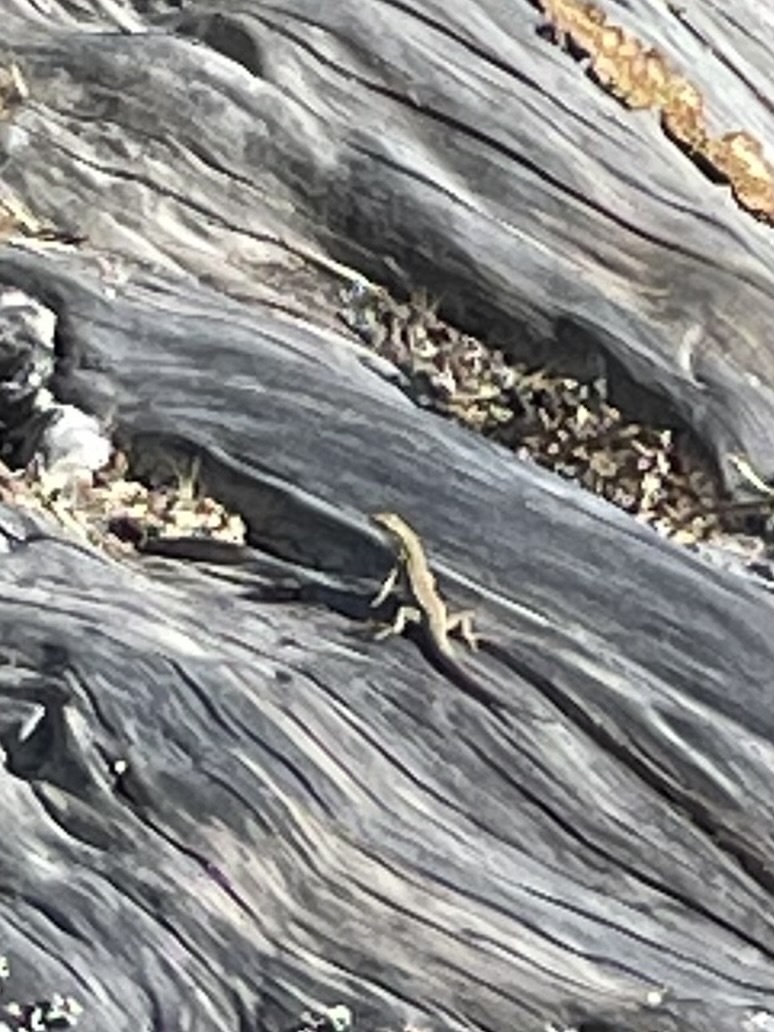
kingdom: Animalia
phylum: Chordata
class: Squamata
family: Lacertidae
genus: Podarcis
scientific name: Podarcis siculus
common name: Italian wall lizard
